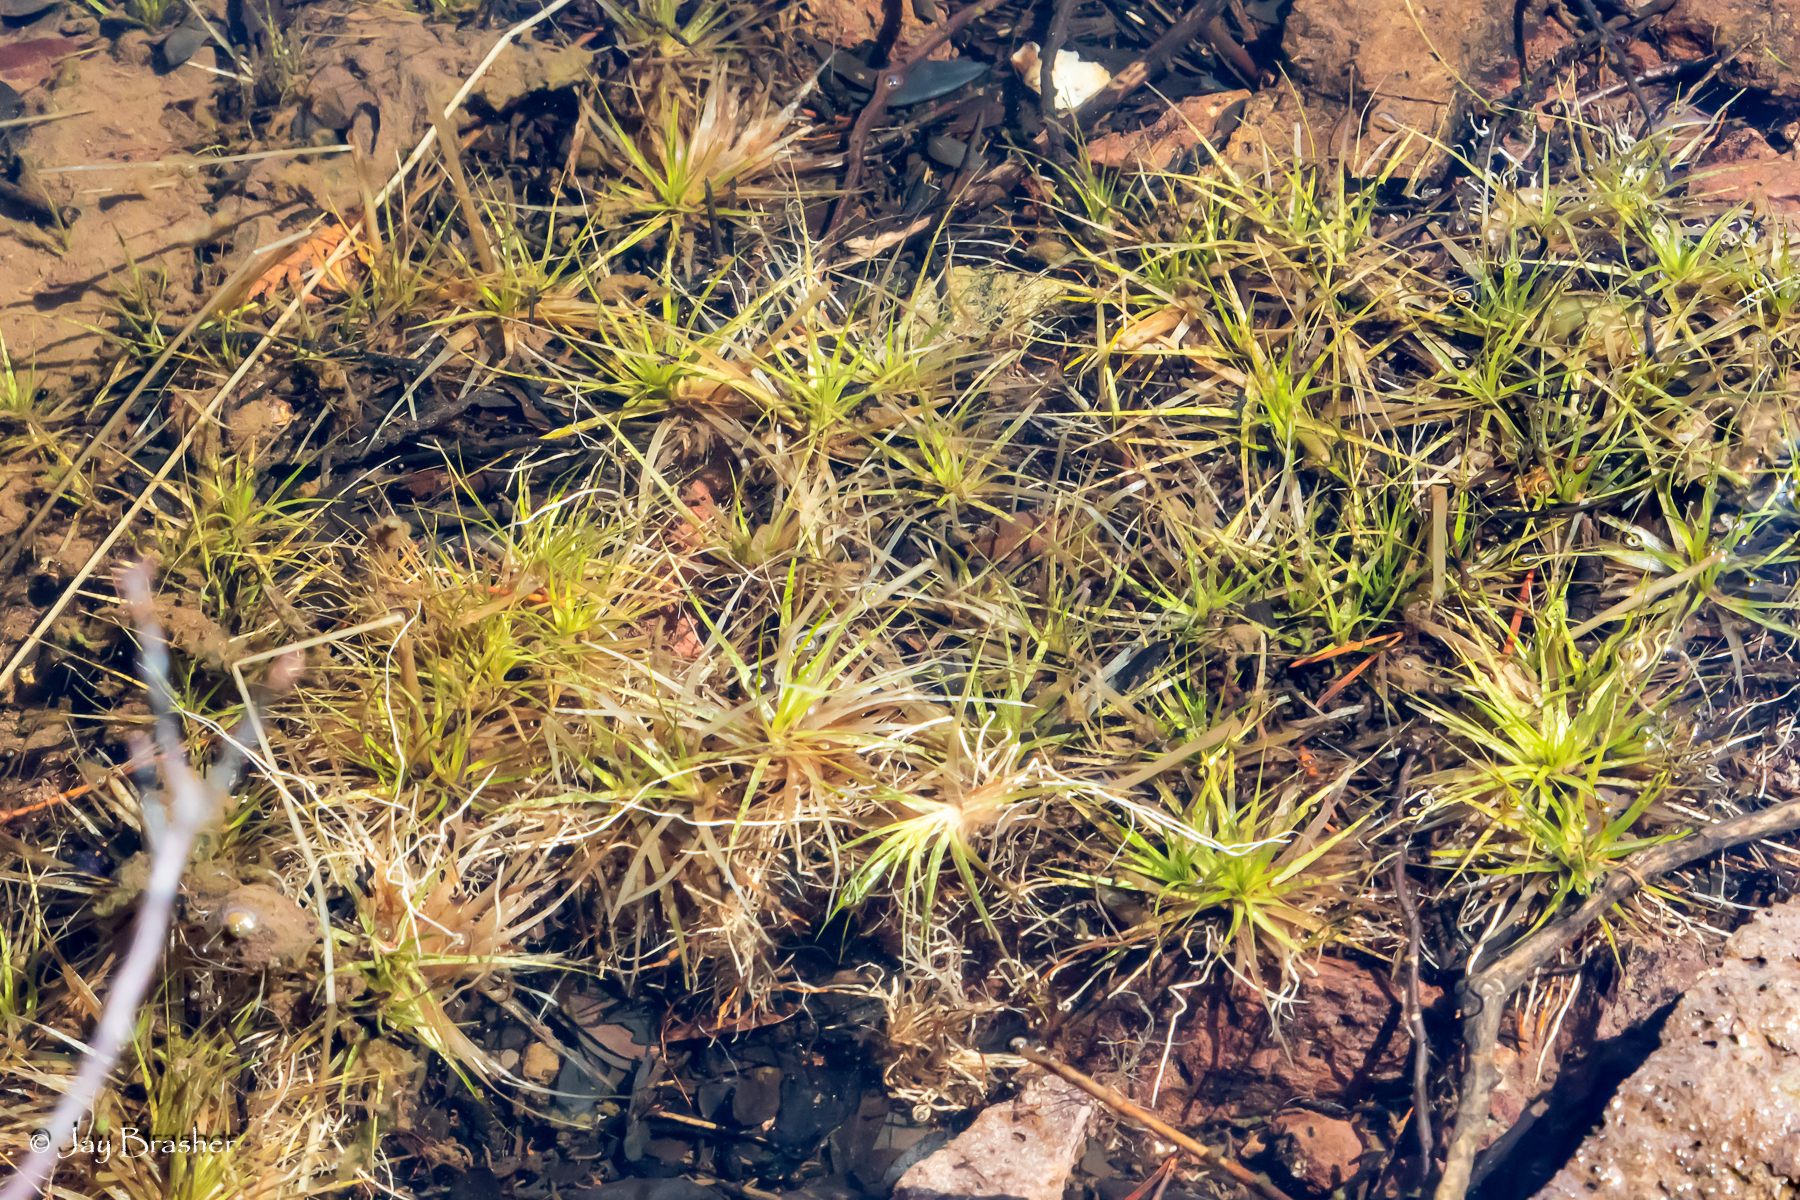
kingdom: Plantae
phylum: Tracheophyta
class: Liliopsida
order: Poales
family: Eriocaulaceae
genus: Eriocaulon
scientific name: Eriocaulon aquaticum
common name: Pipewort
